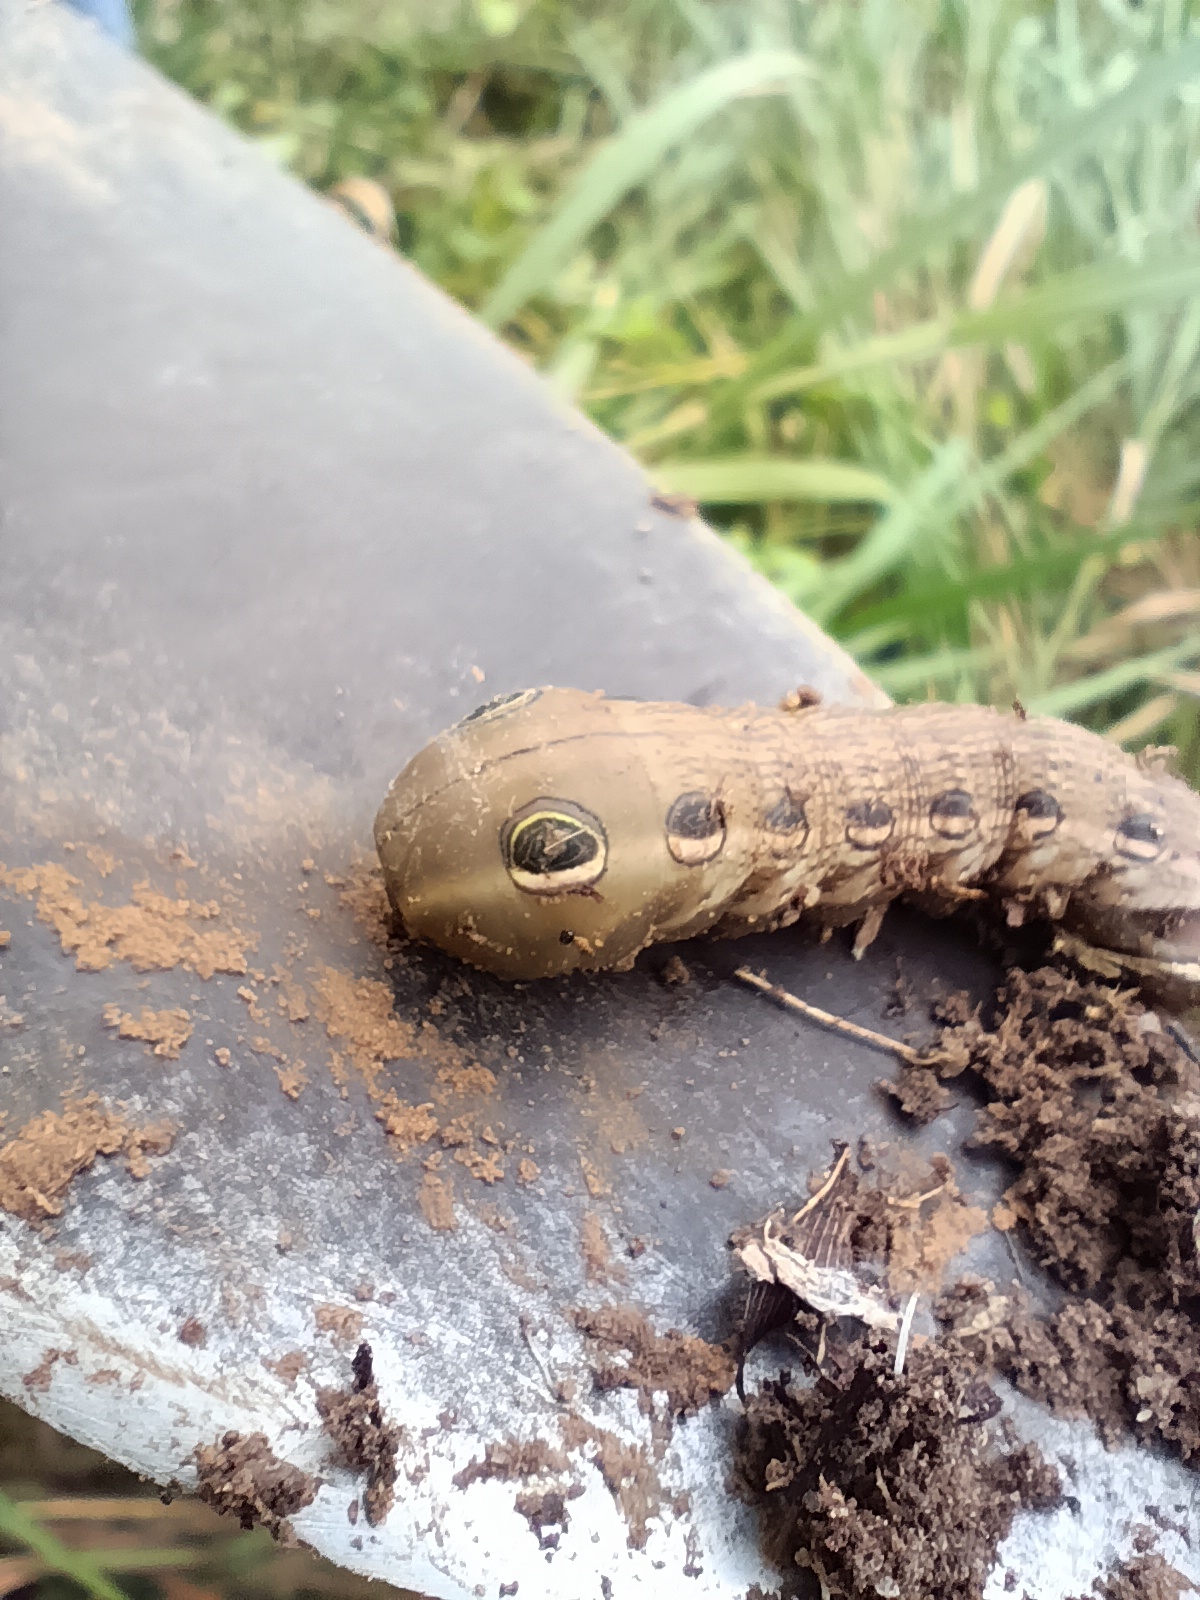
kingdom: Animalia
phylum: Arthropoda
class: Insecta
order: Lepidoptera
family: Sphingidae
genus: Xylophanes
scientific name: Xylophanes tersa
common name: Tersa sphinx
